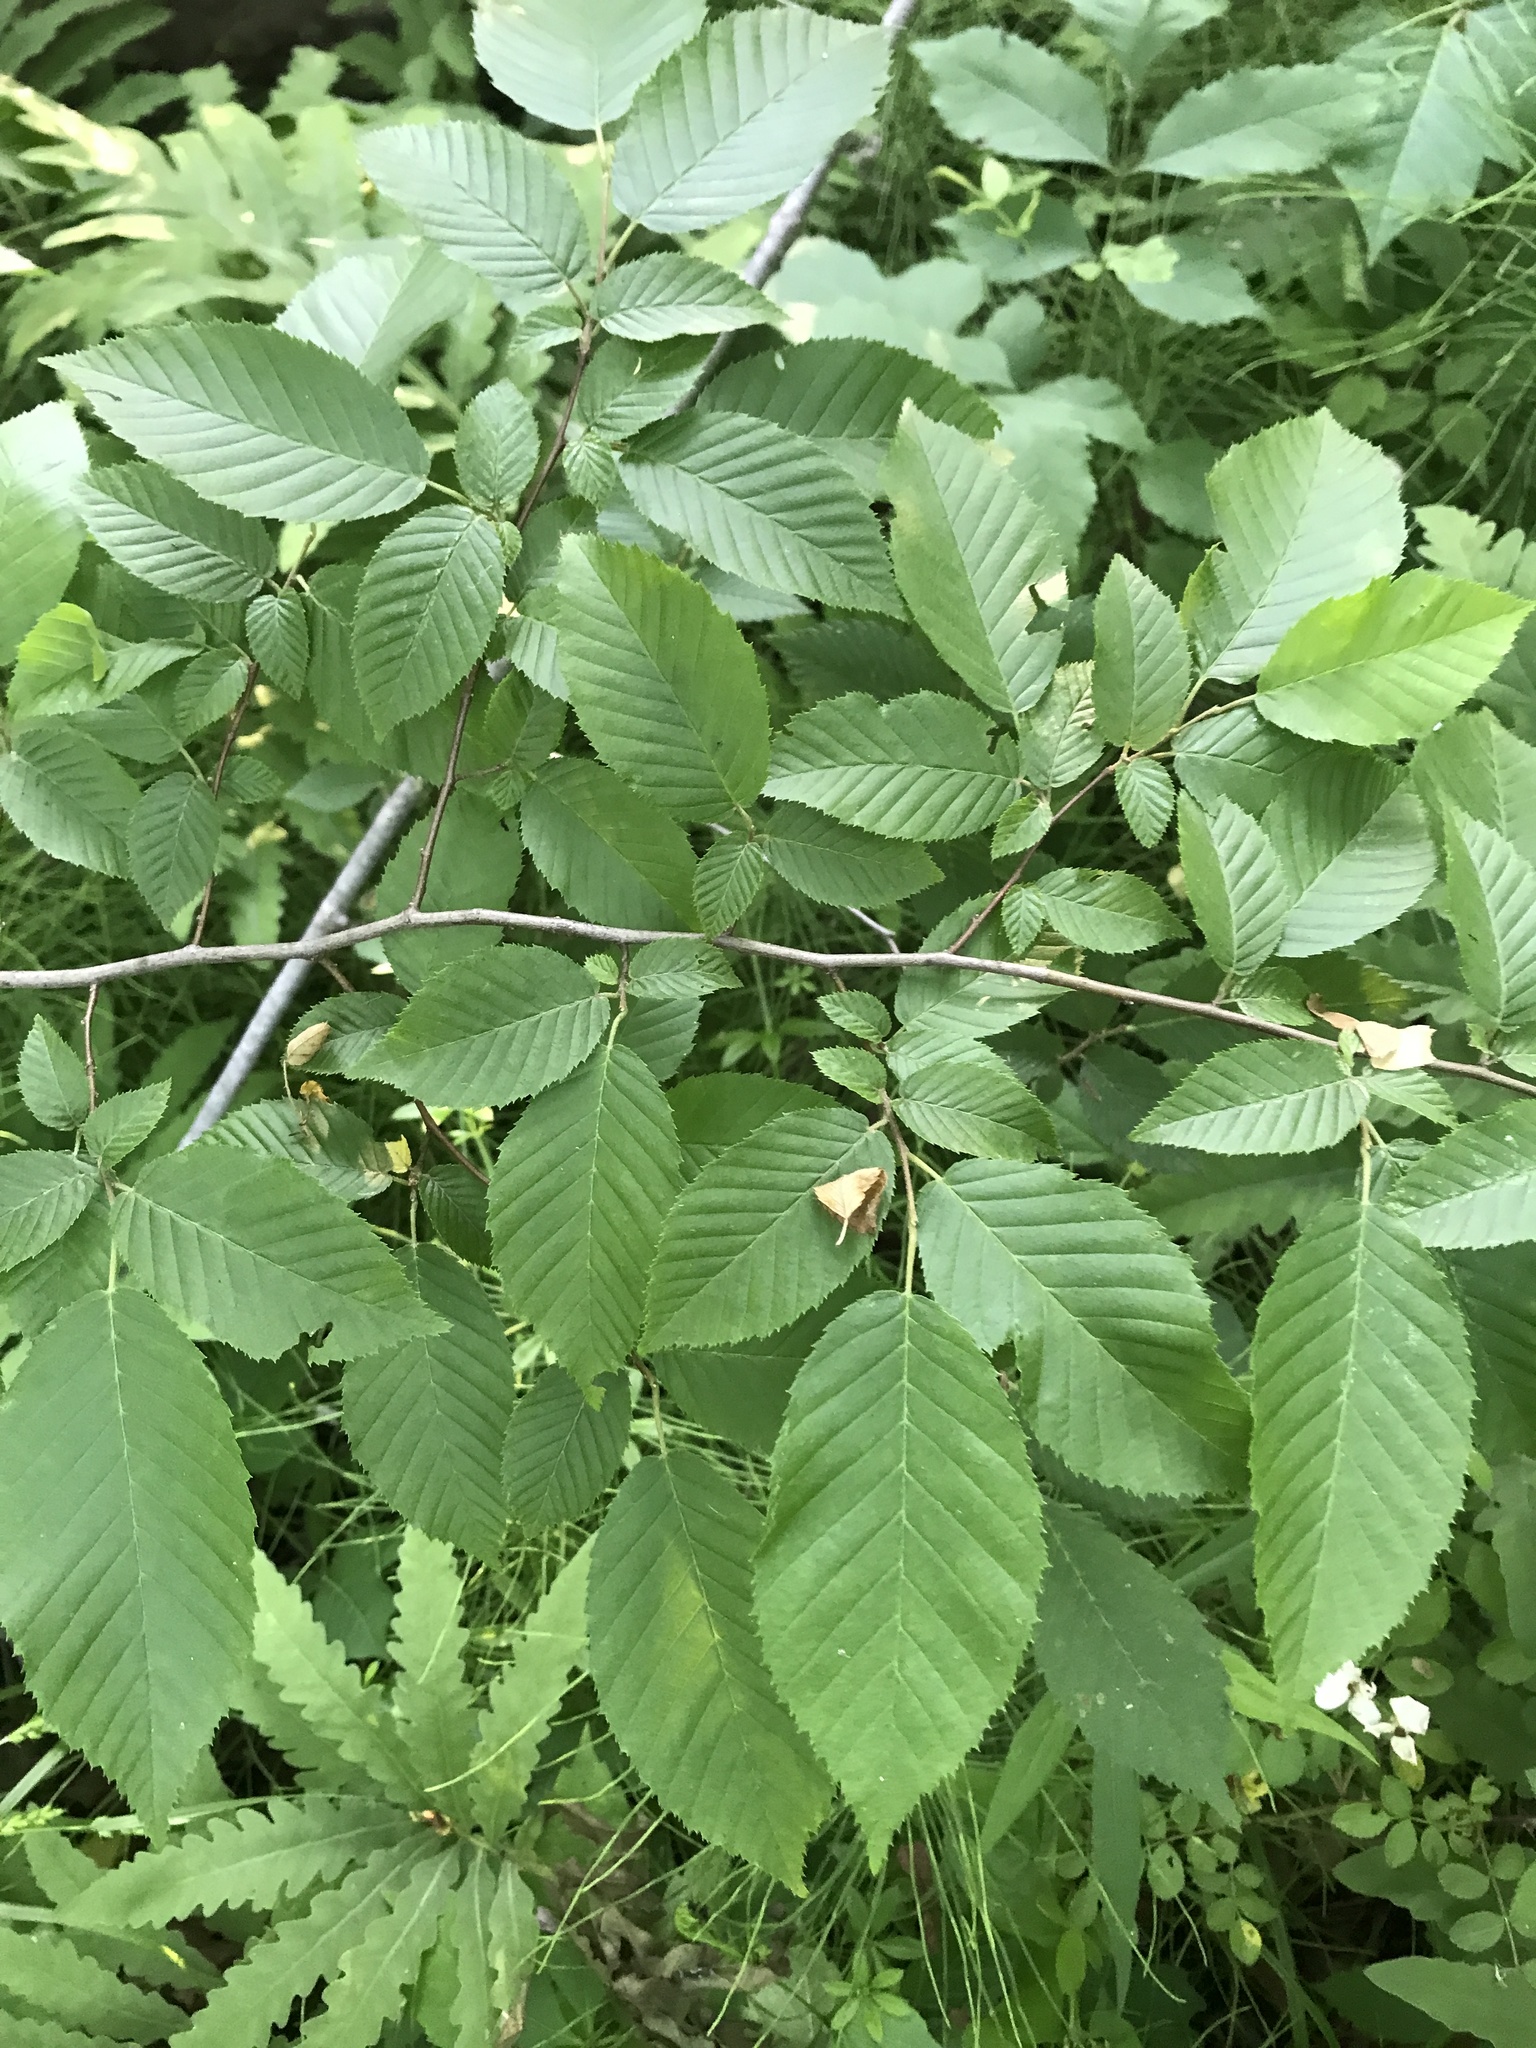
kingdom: Plantae
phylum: Tracheophyta
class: Magnoliopsida
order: Fagales
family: Fagaceae
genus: Fagus
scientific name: Fagus grandifolia
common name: American beech
